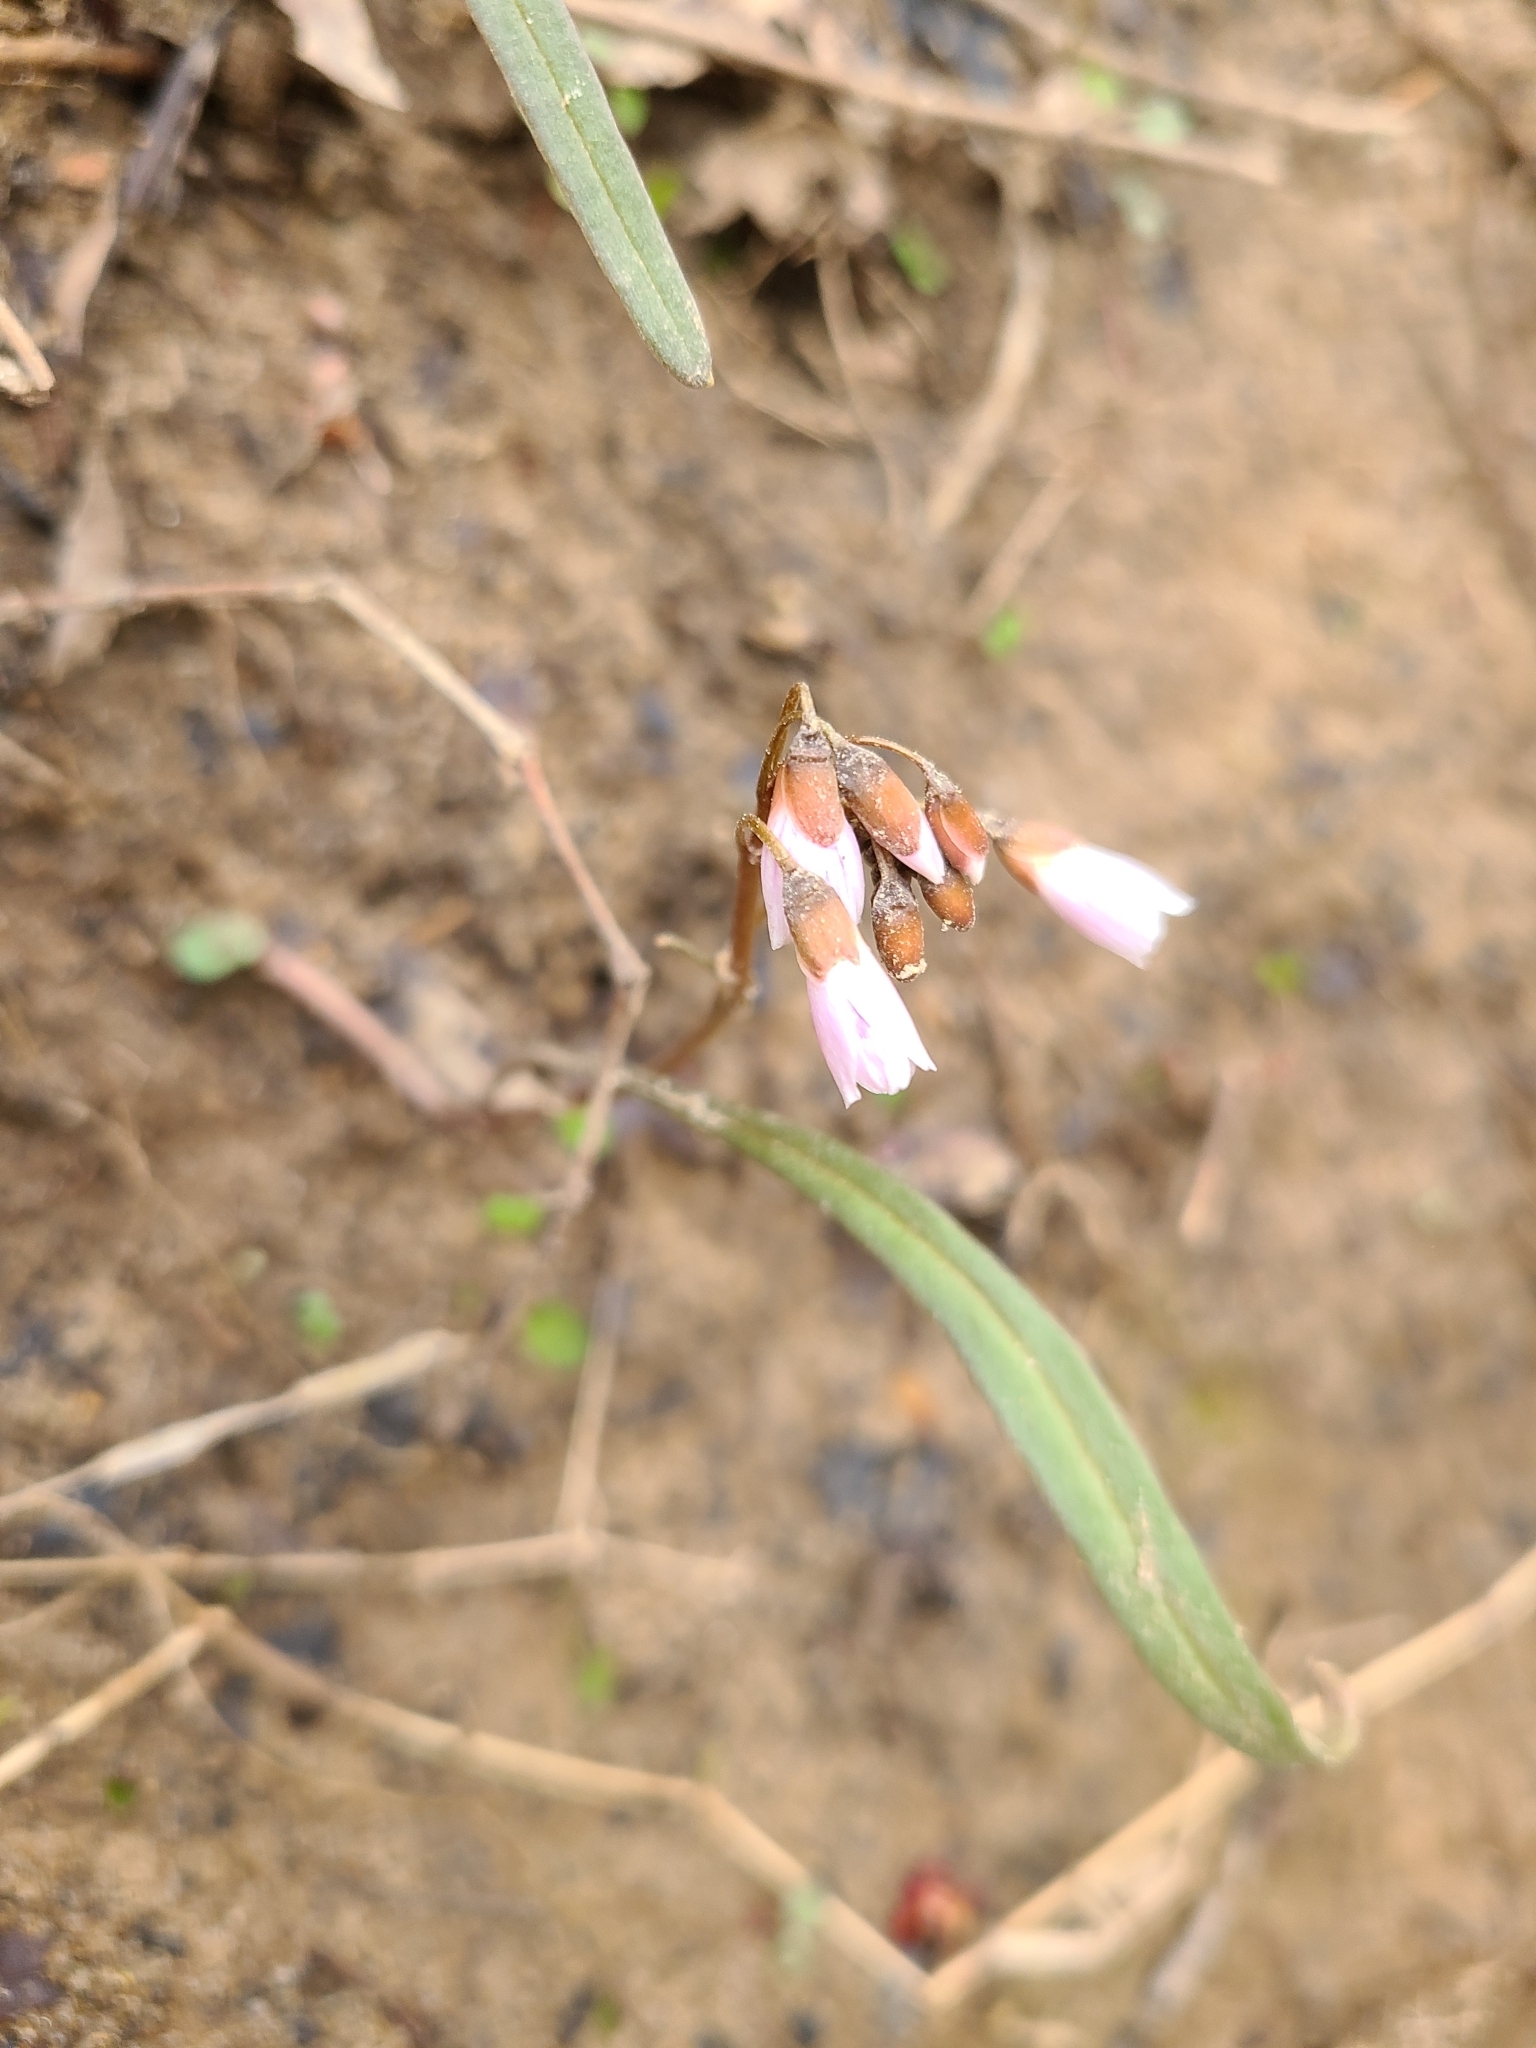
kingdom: Plantae
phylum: Tracheophyta
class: Magnoliopsida
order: Caryophyllales
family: Montiaceae
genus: Claytonia
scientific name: Claytonia virginica
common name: Virginia springbeauty
